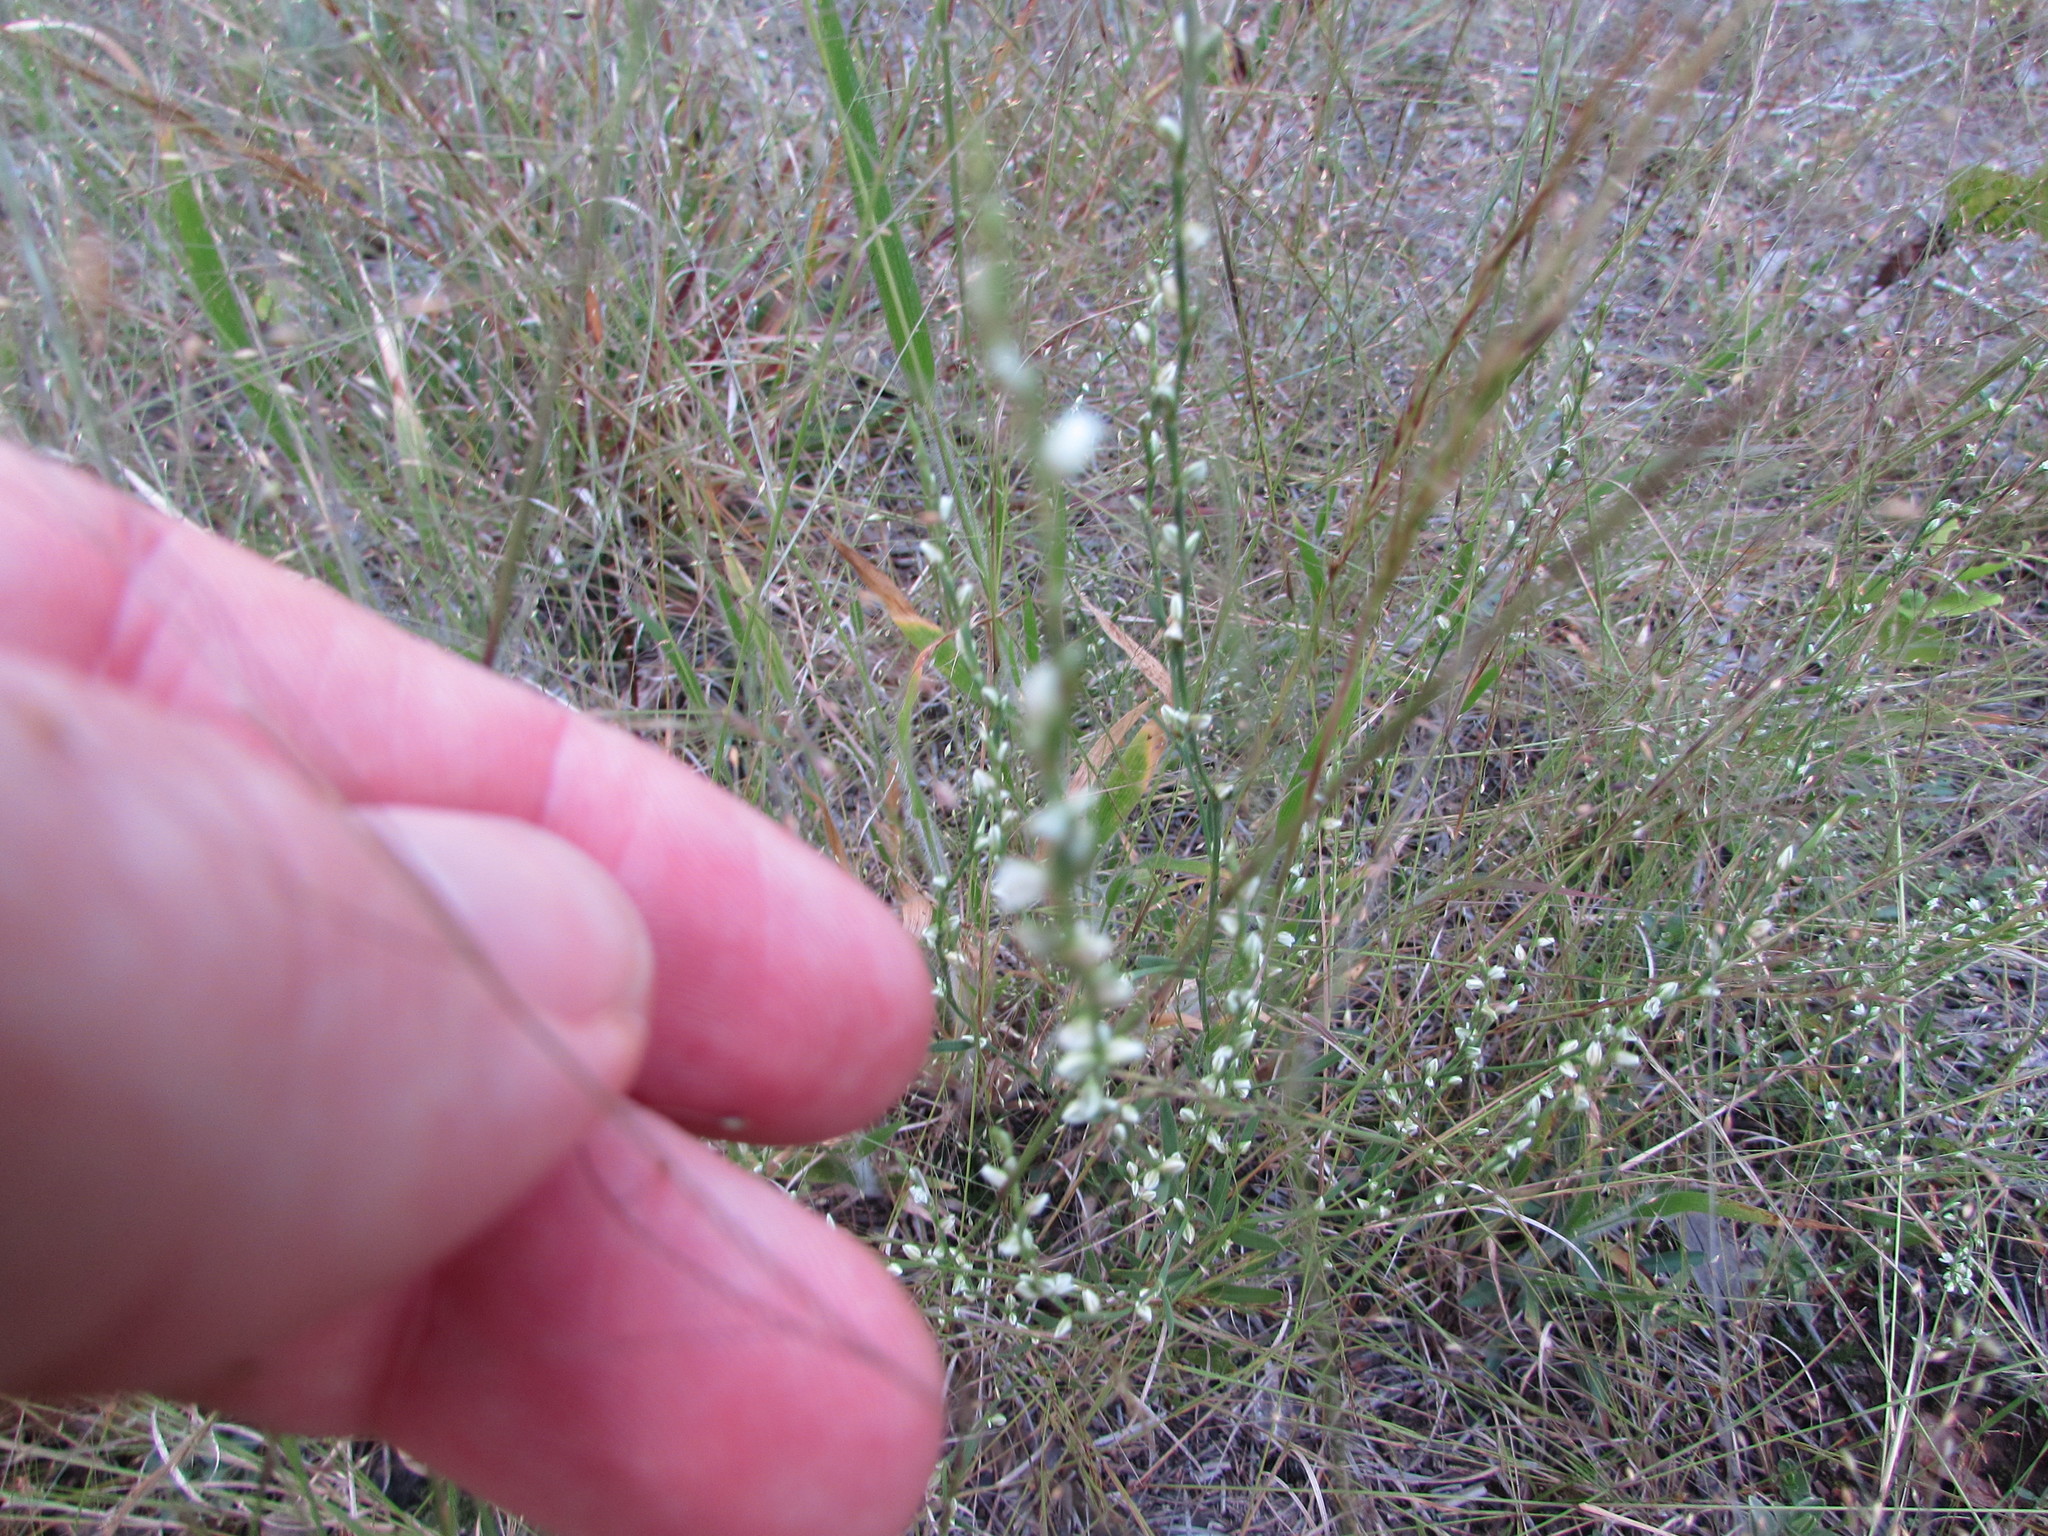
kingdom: Plantae
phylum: Tracheophyta
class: Magnoliopsida
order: Caryophyllales
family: Polygonaceae
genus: Polygonum
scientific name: Polygonum tenue
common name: Pleat-leaved knotweed
